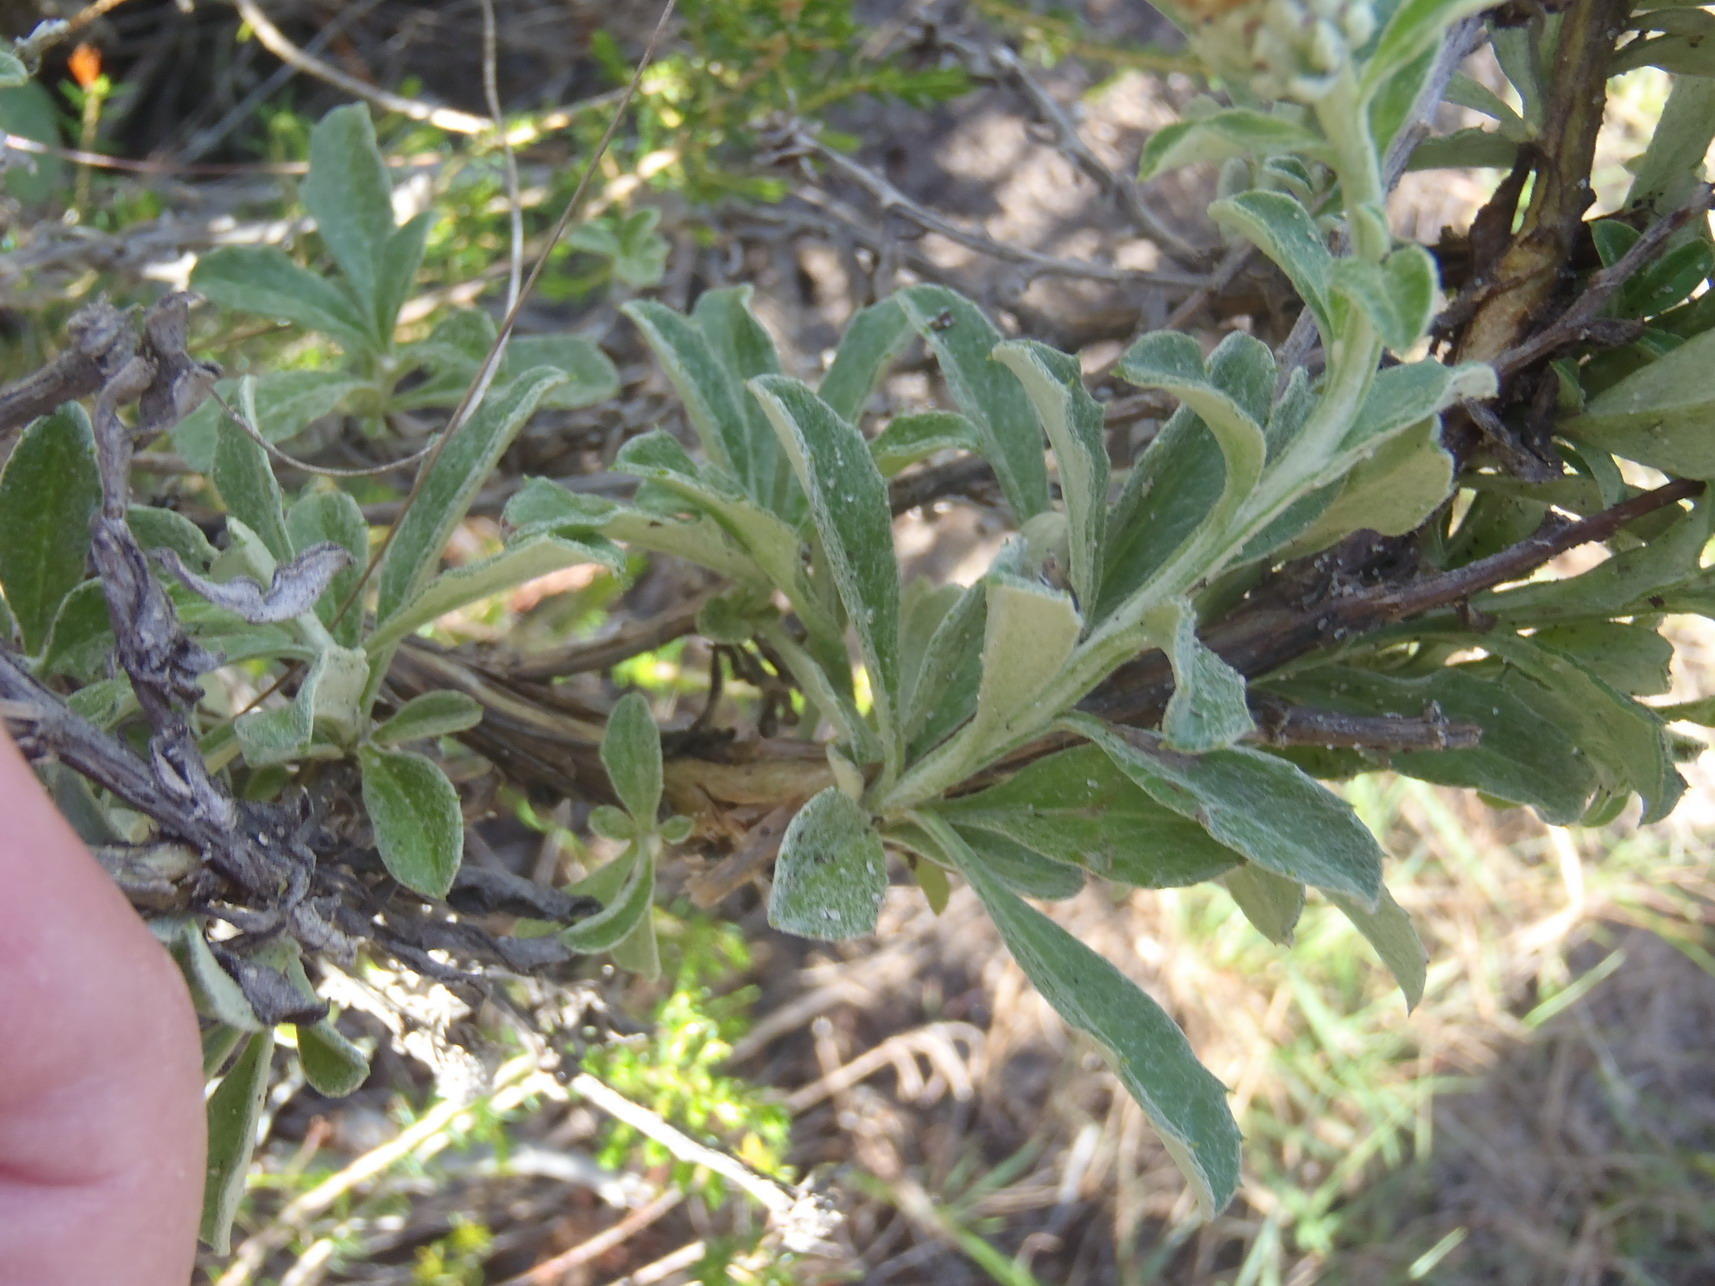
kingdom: Plantae
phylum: Tracheophyta
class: Magnoliopsida
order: Asterales
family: Asteraceae
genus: Printzia
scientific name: Printzia polifolia
